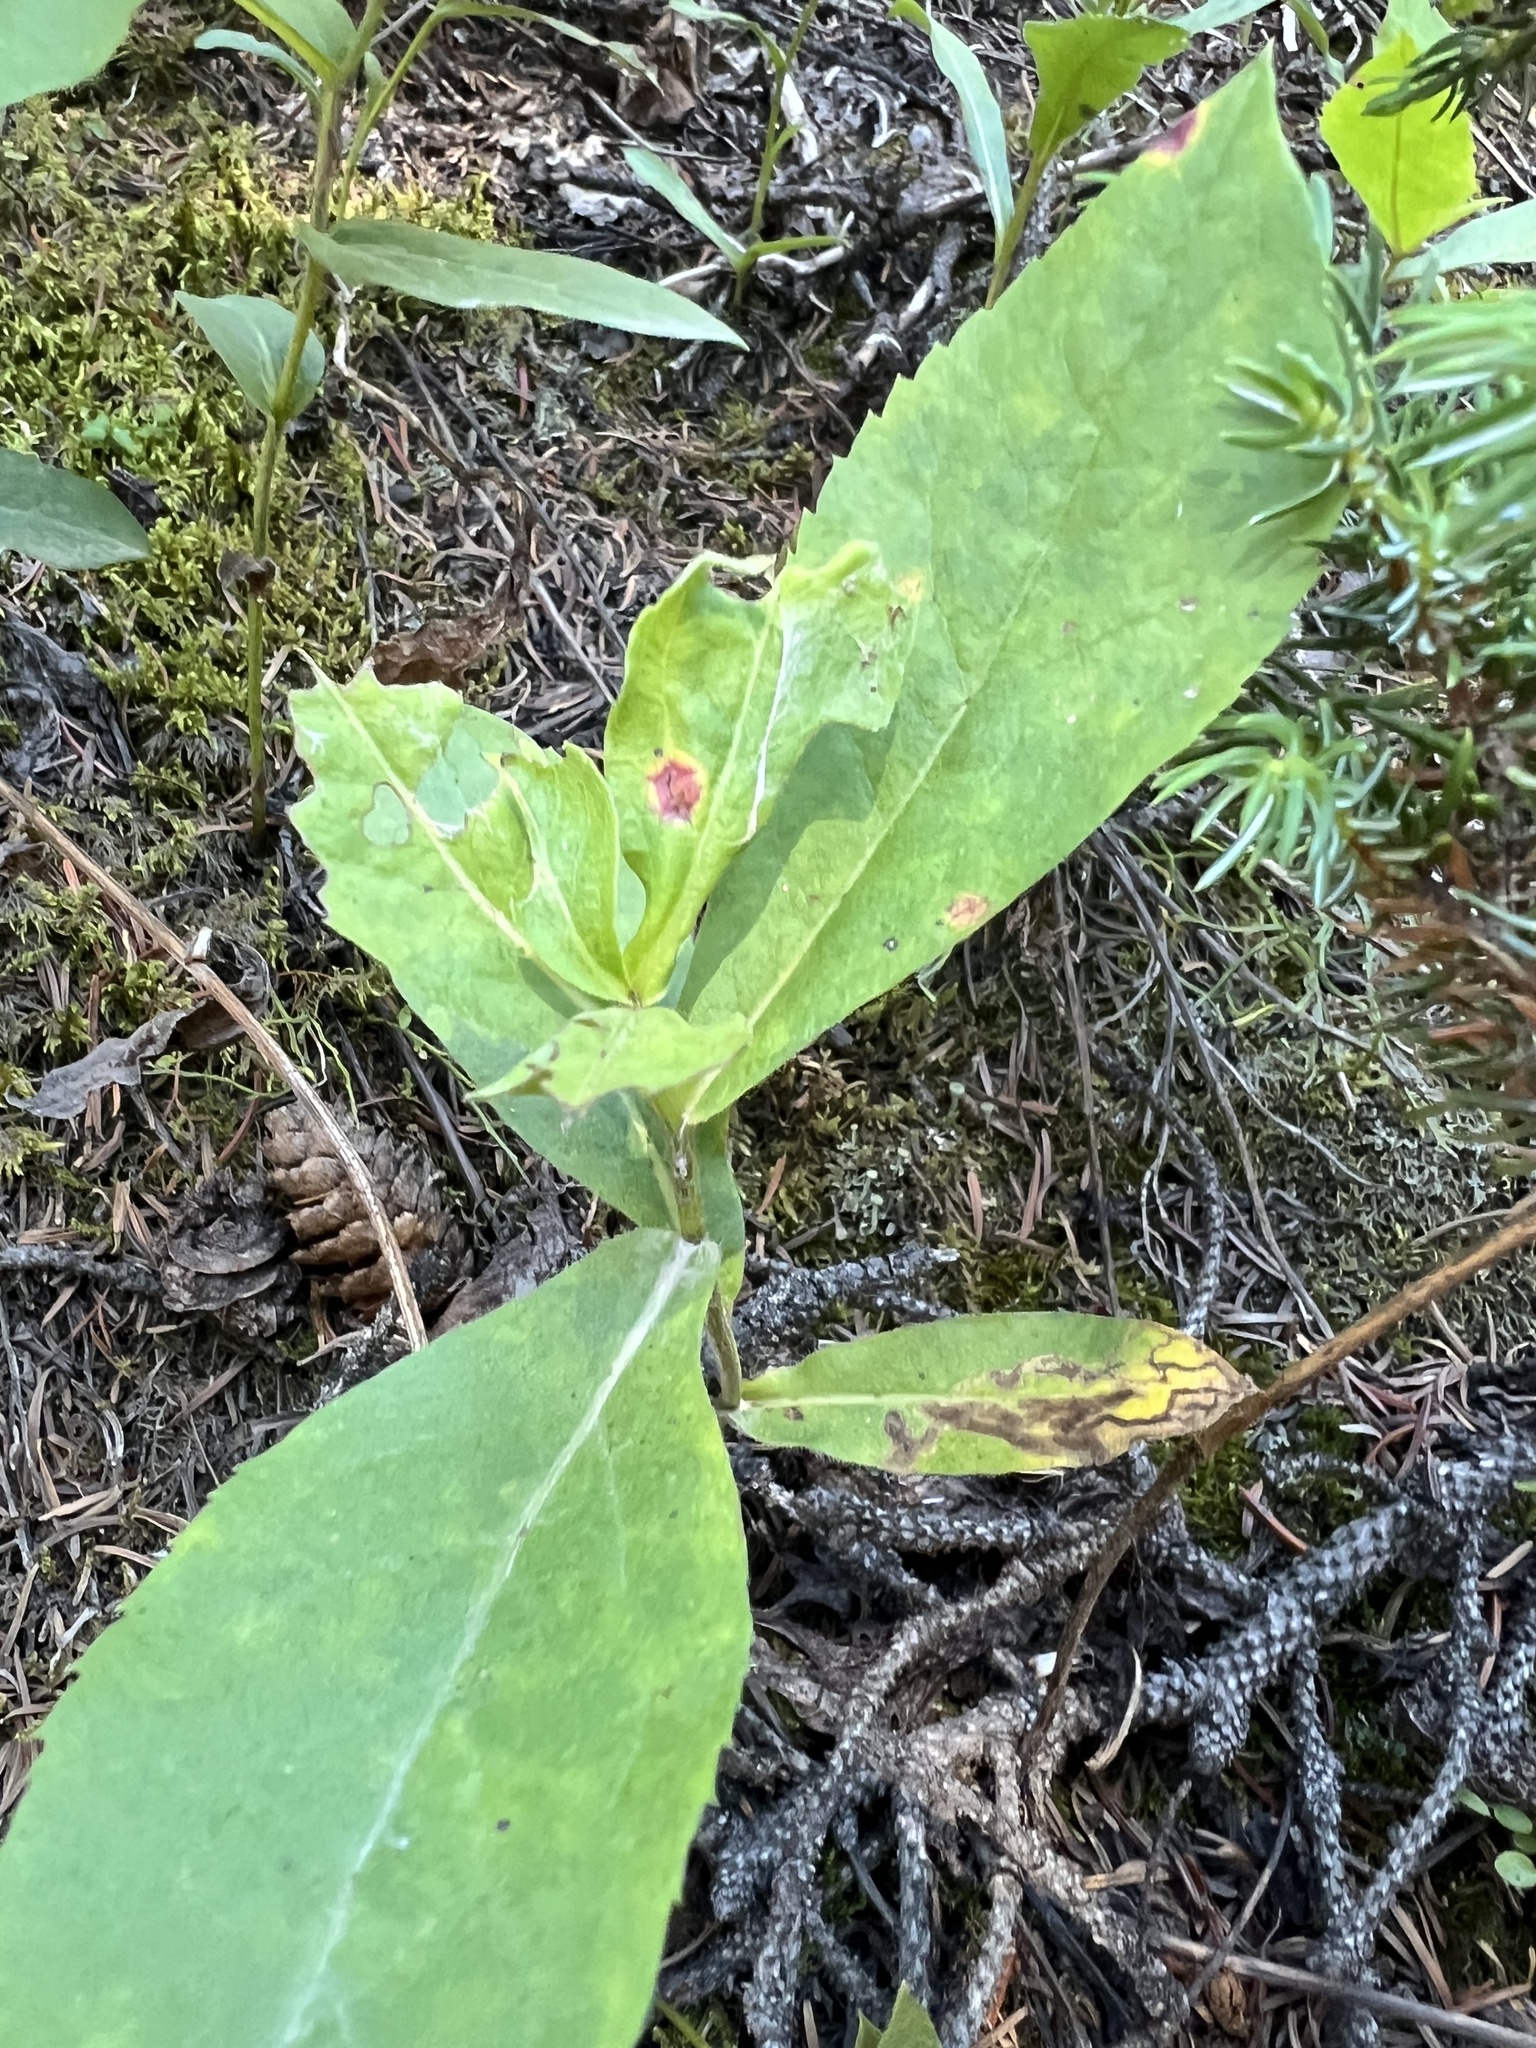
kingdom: Plantae
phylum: Tracheophyta
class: Magnoliopsida
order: Asterales
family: Asteraceae
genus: Eurybia
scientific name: Eurybia conspicua
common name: Showy aster
